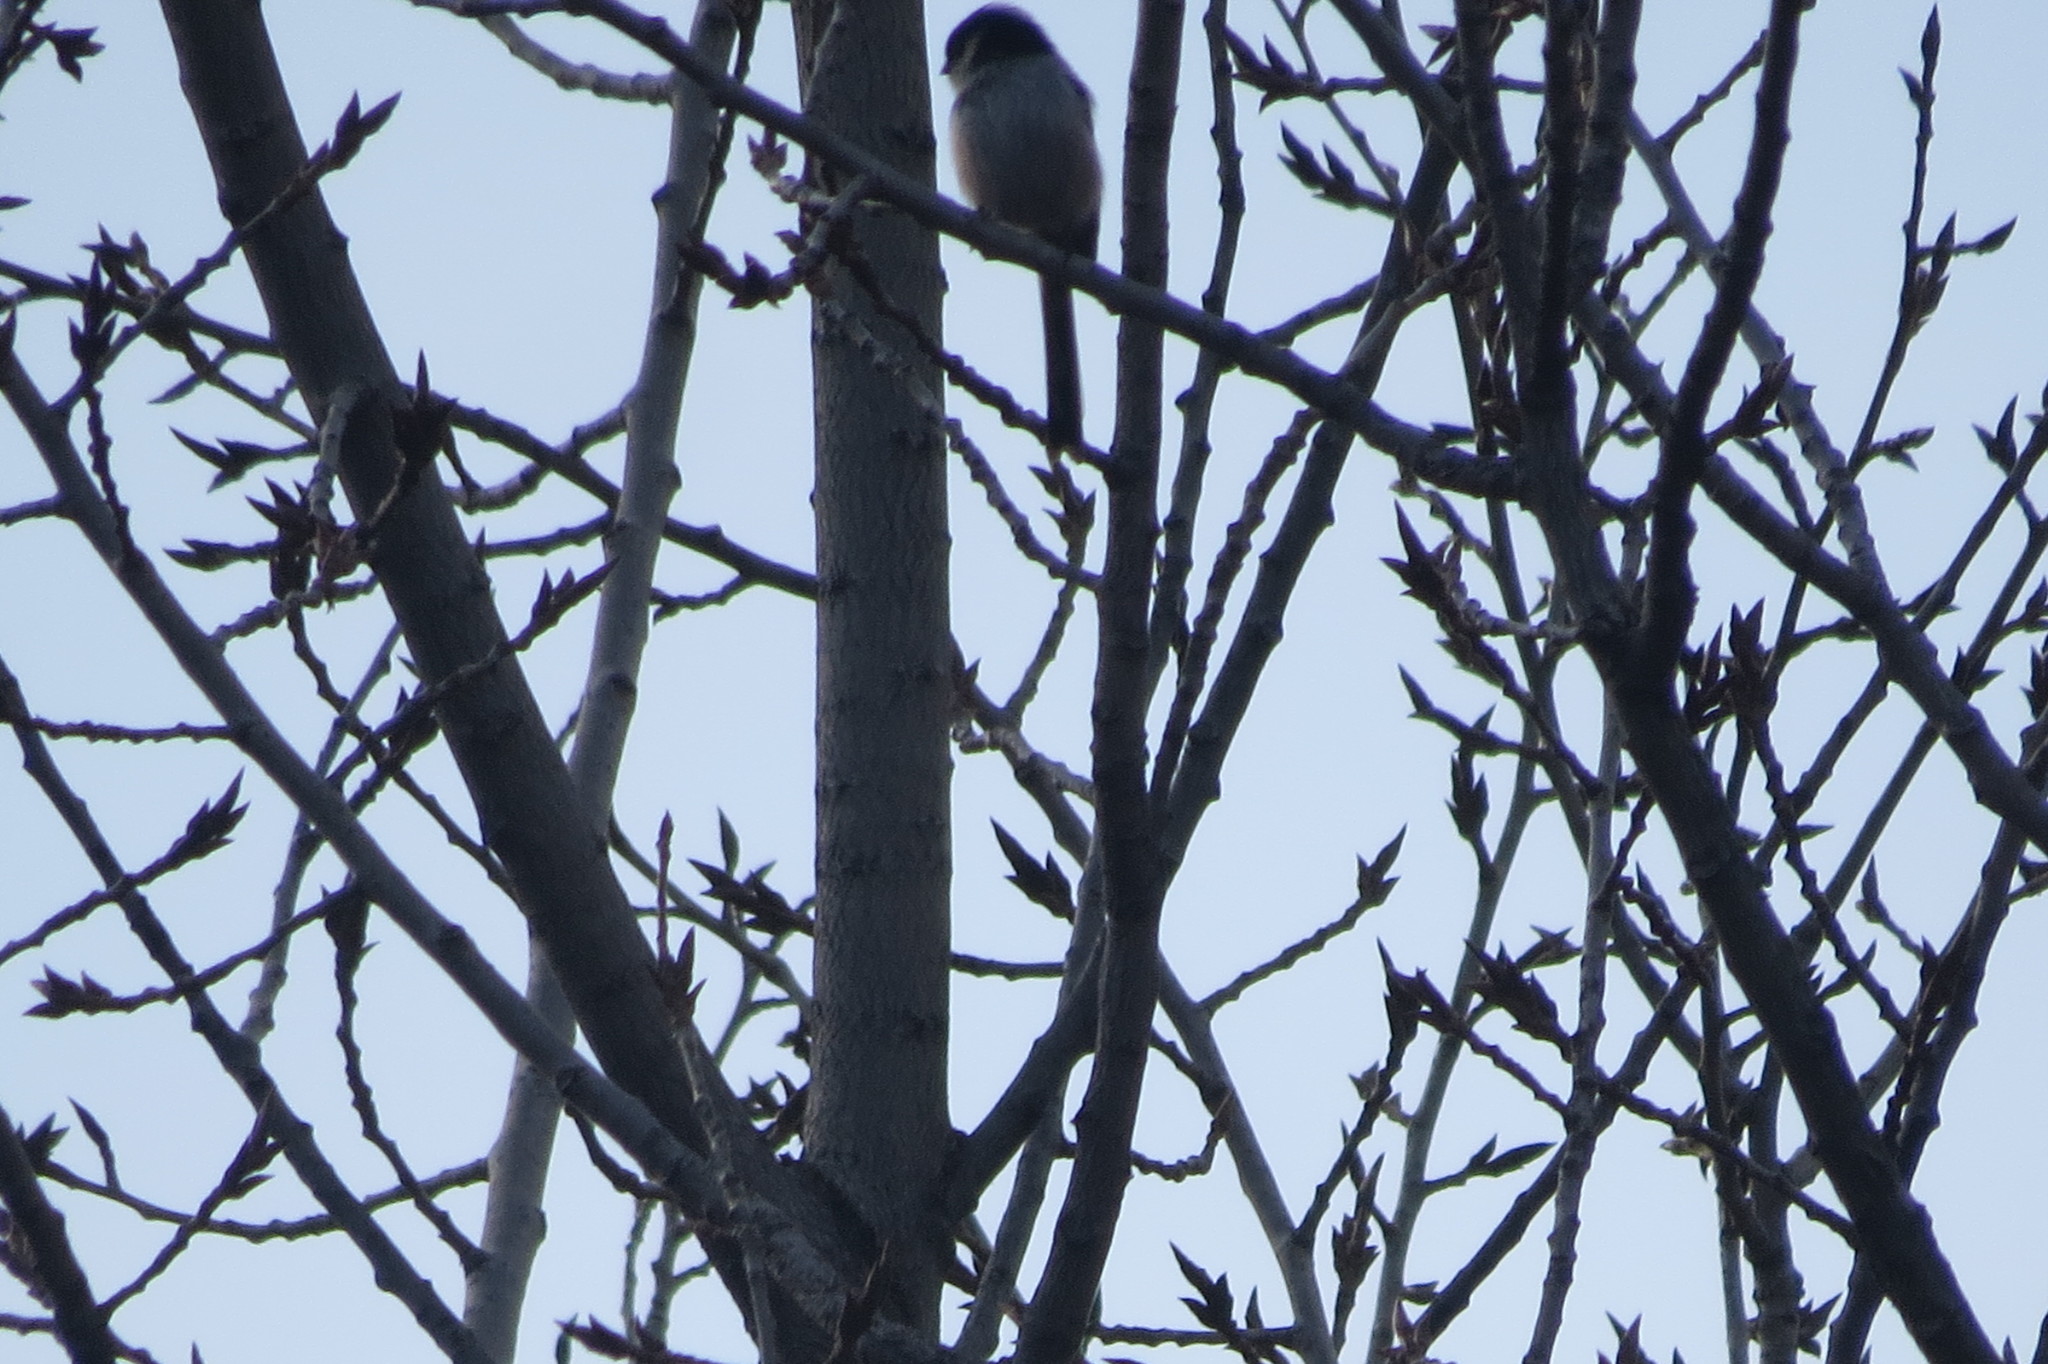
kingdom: Animalia
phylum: Chordata
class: Aves
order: Passeriformes
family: Aegithalidae
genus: Aegithalos
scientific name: Aegithalos caudatus
